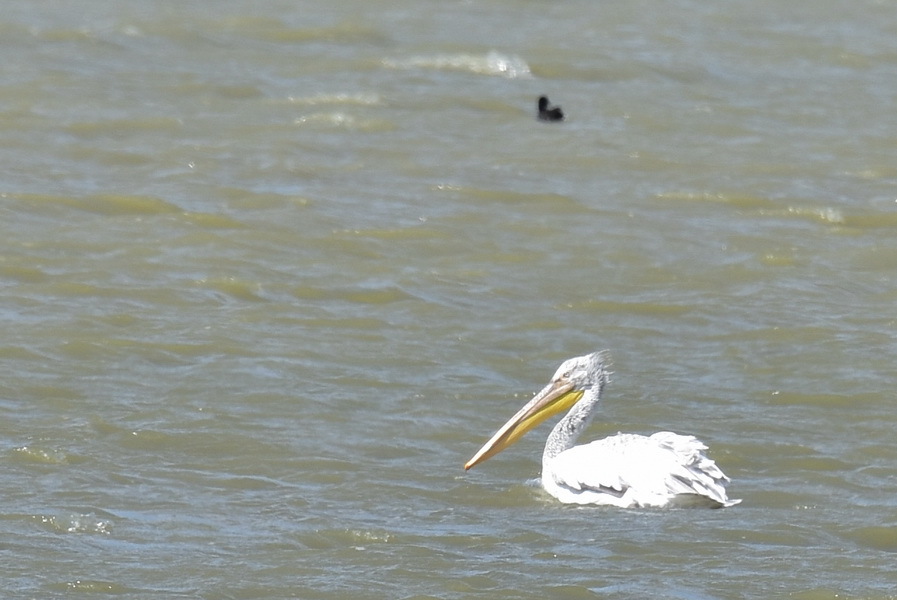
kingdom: Animalia
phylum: Chordata
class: Aves
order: Pelecaniformes
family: Pelecanidae
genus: Pelecanus
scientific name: Pelecanus crispus
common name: Dalmatian pelican
